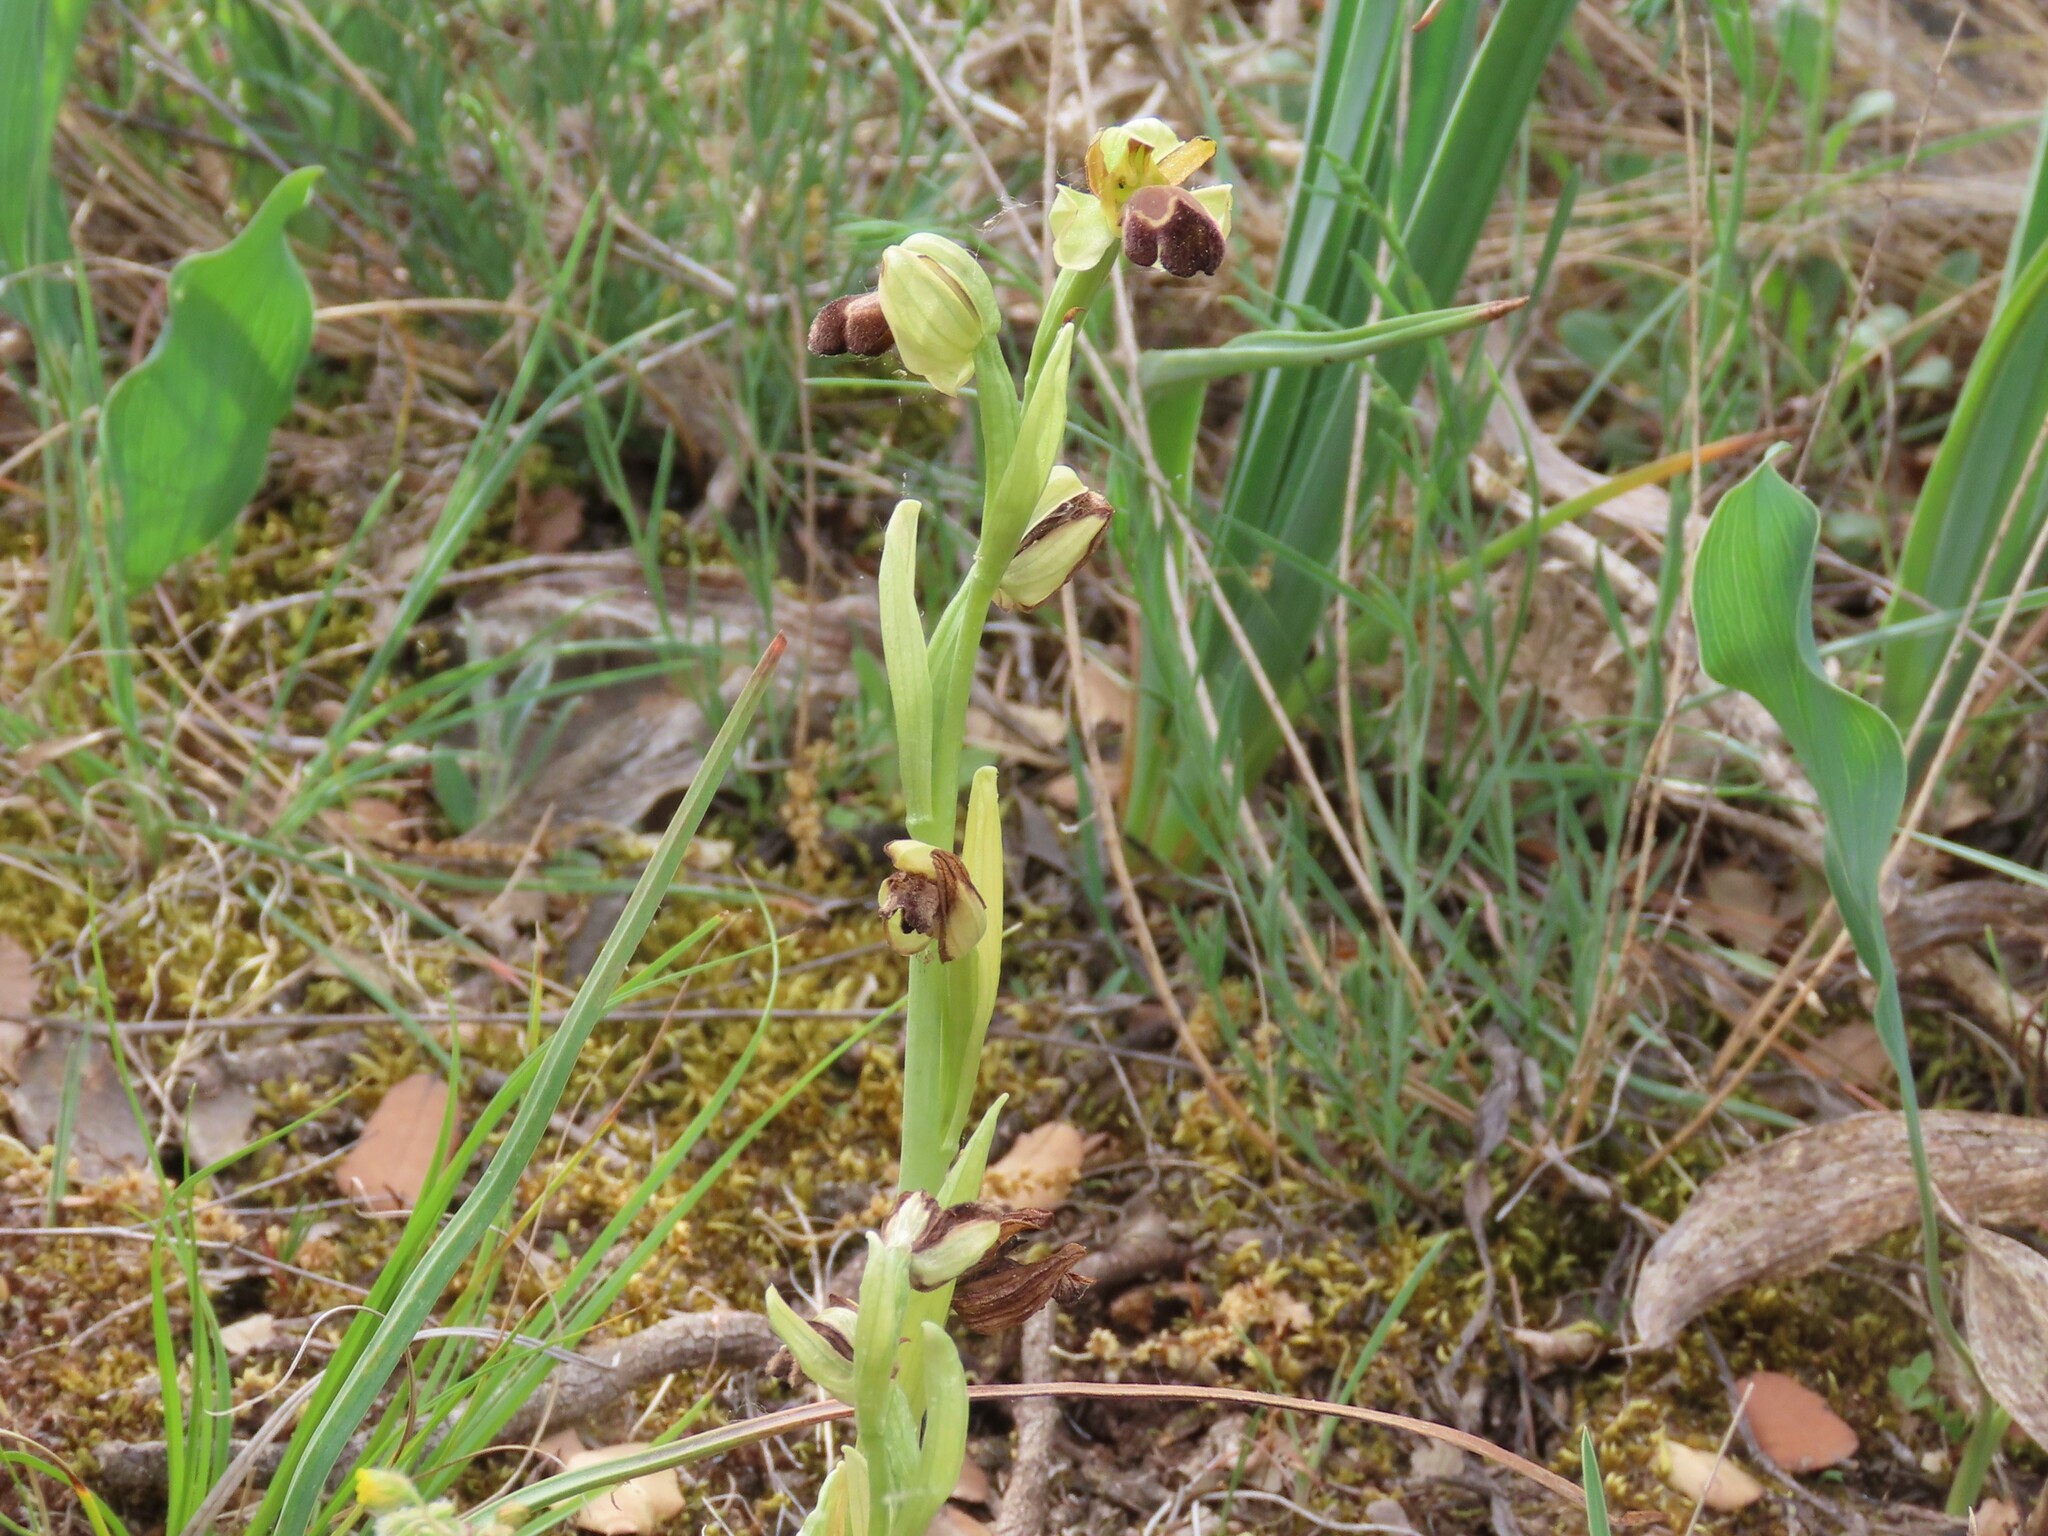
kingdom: Plantae
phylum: Tracheophyta
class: Liliopsida
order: Asparagales
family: Orchidaceae
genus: Ophrys
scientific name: Ophrys omegaifera
